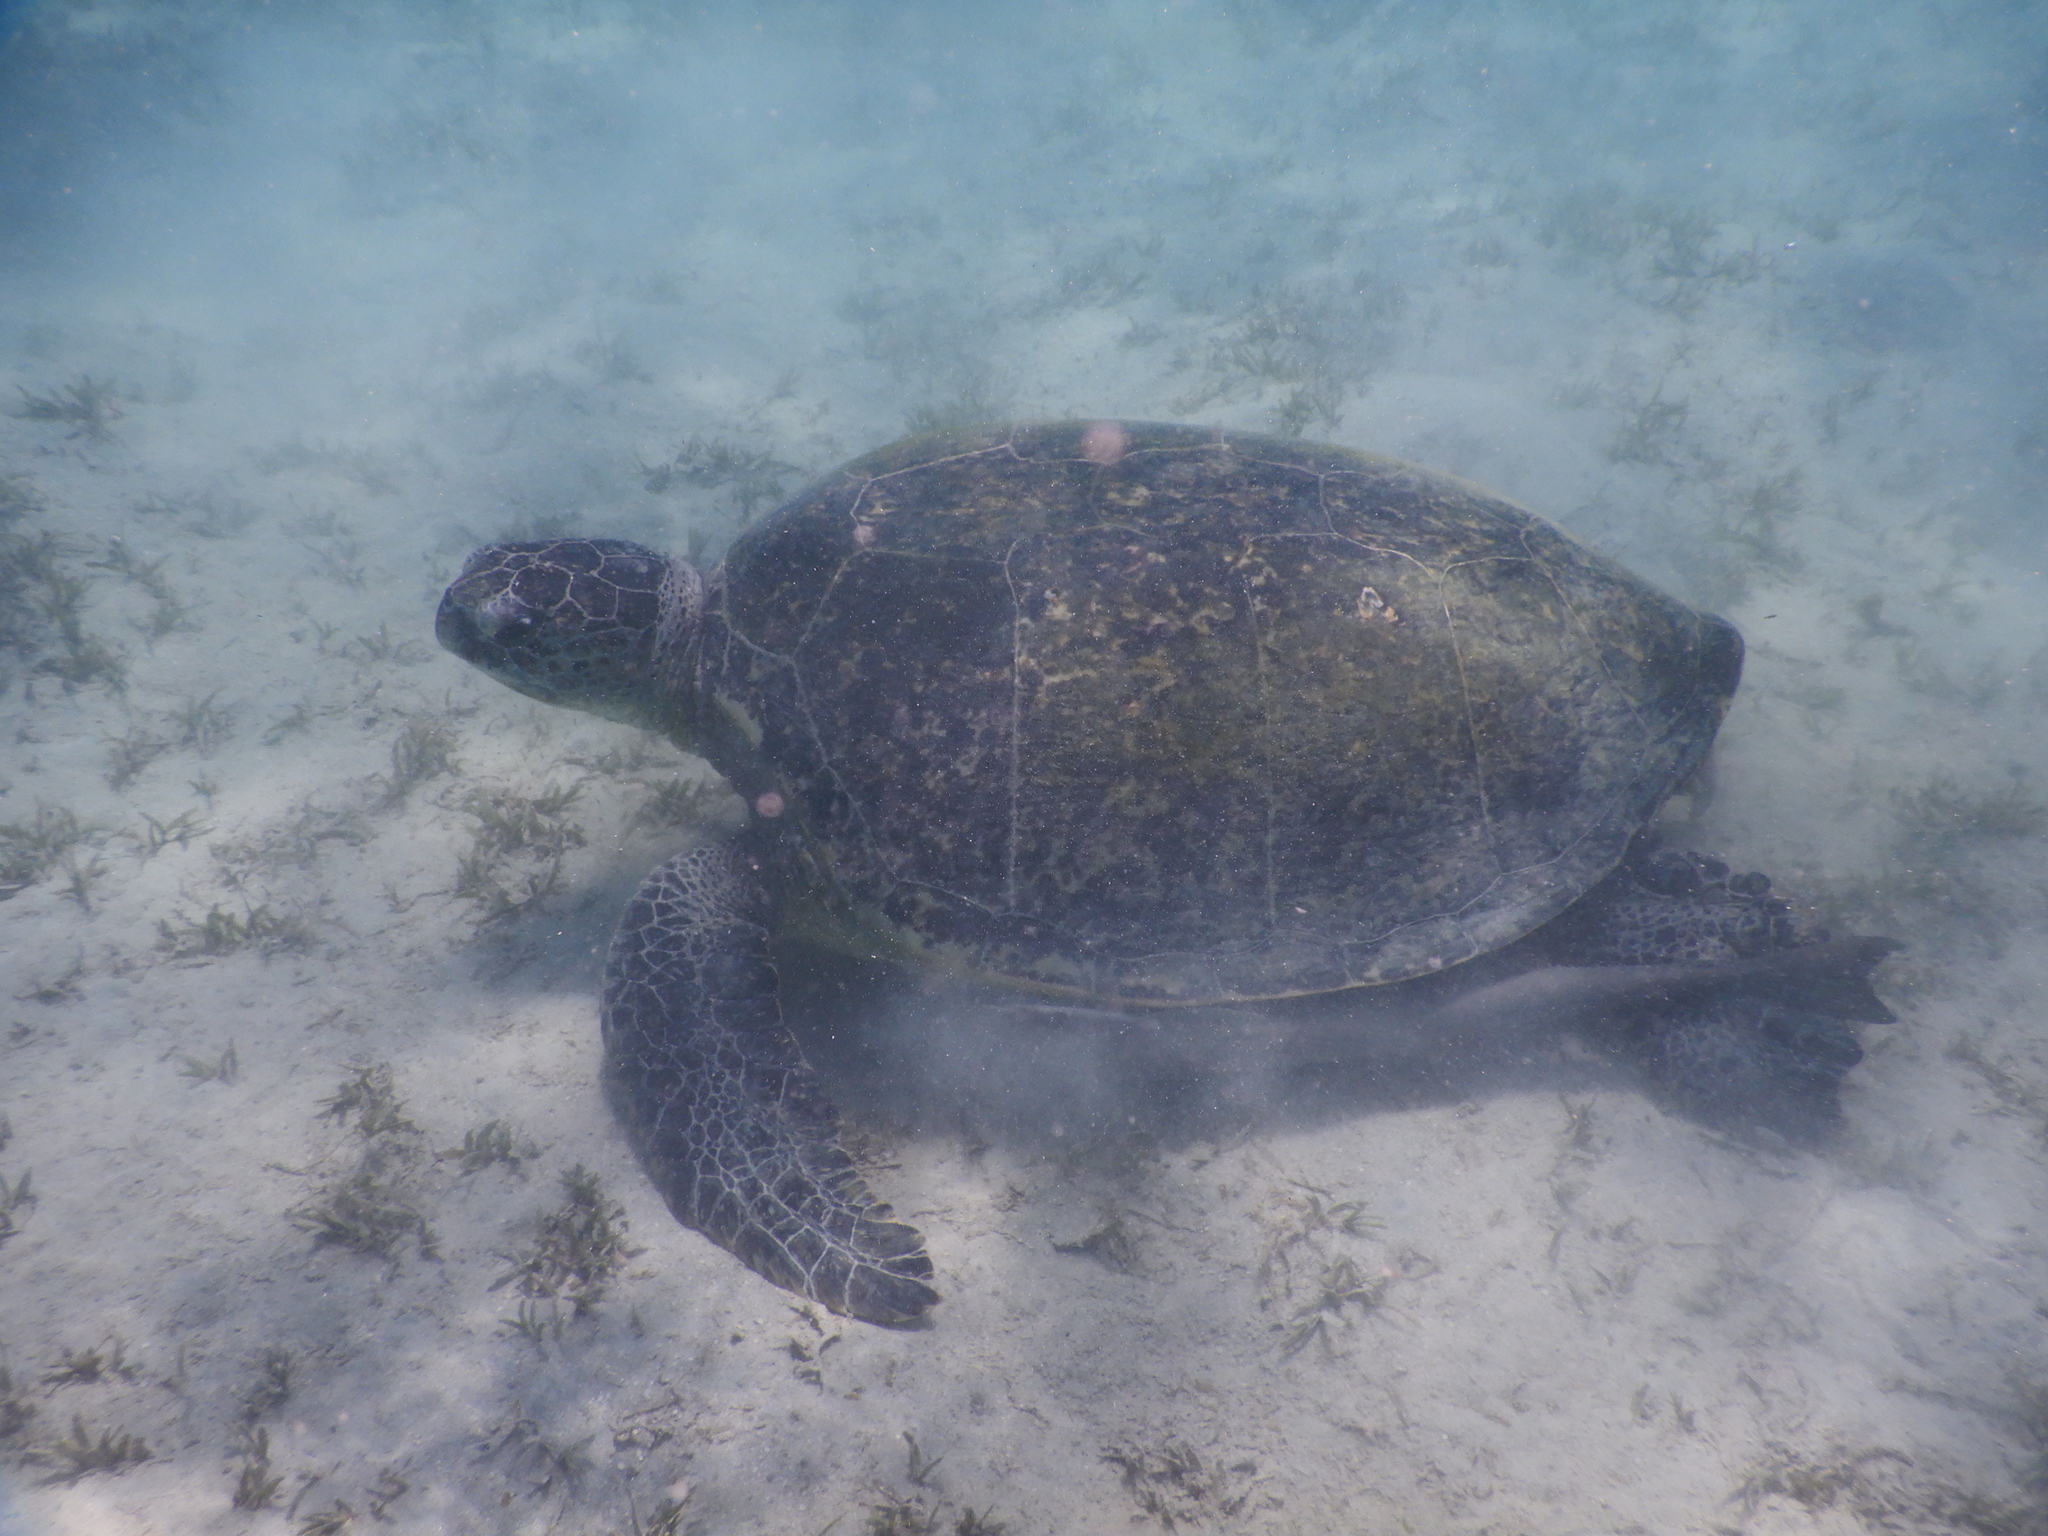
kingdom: Animalia
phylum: Chordata
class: Testudines
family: Cheloniidae
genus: Chelonia
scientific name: Chelonia mydas
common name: Green turtle
